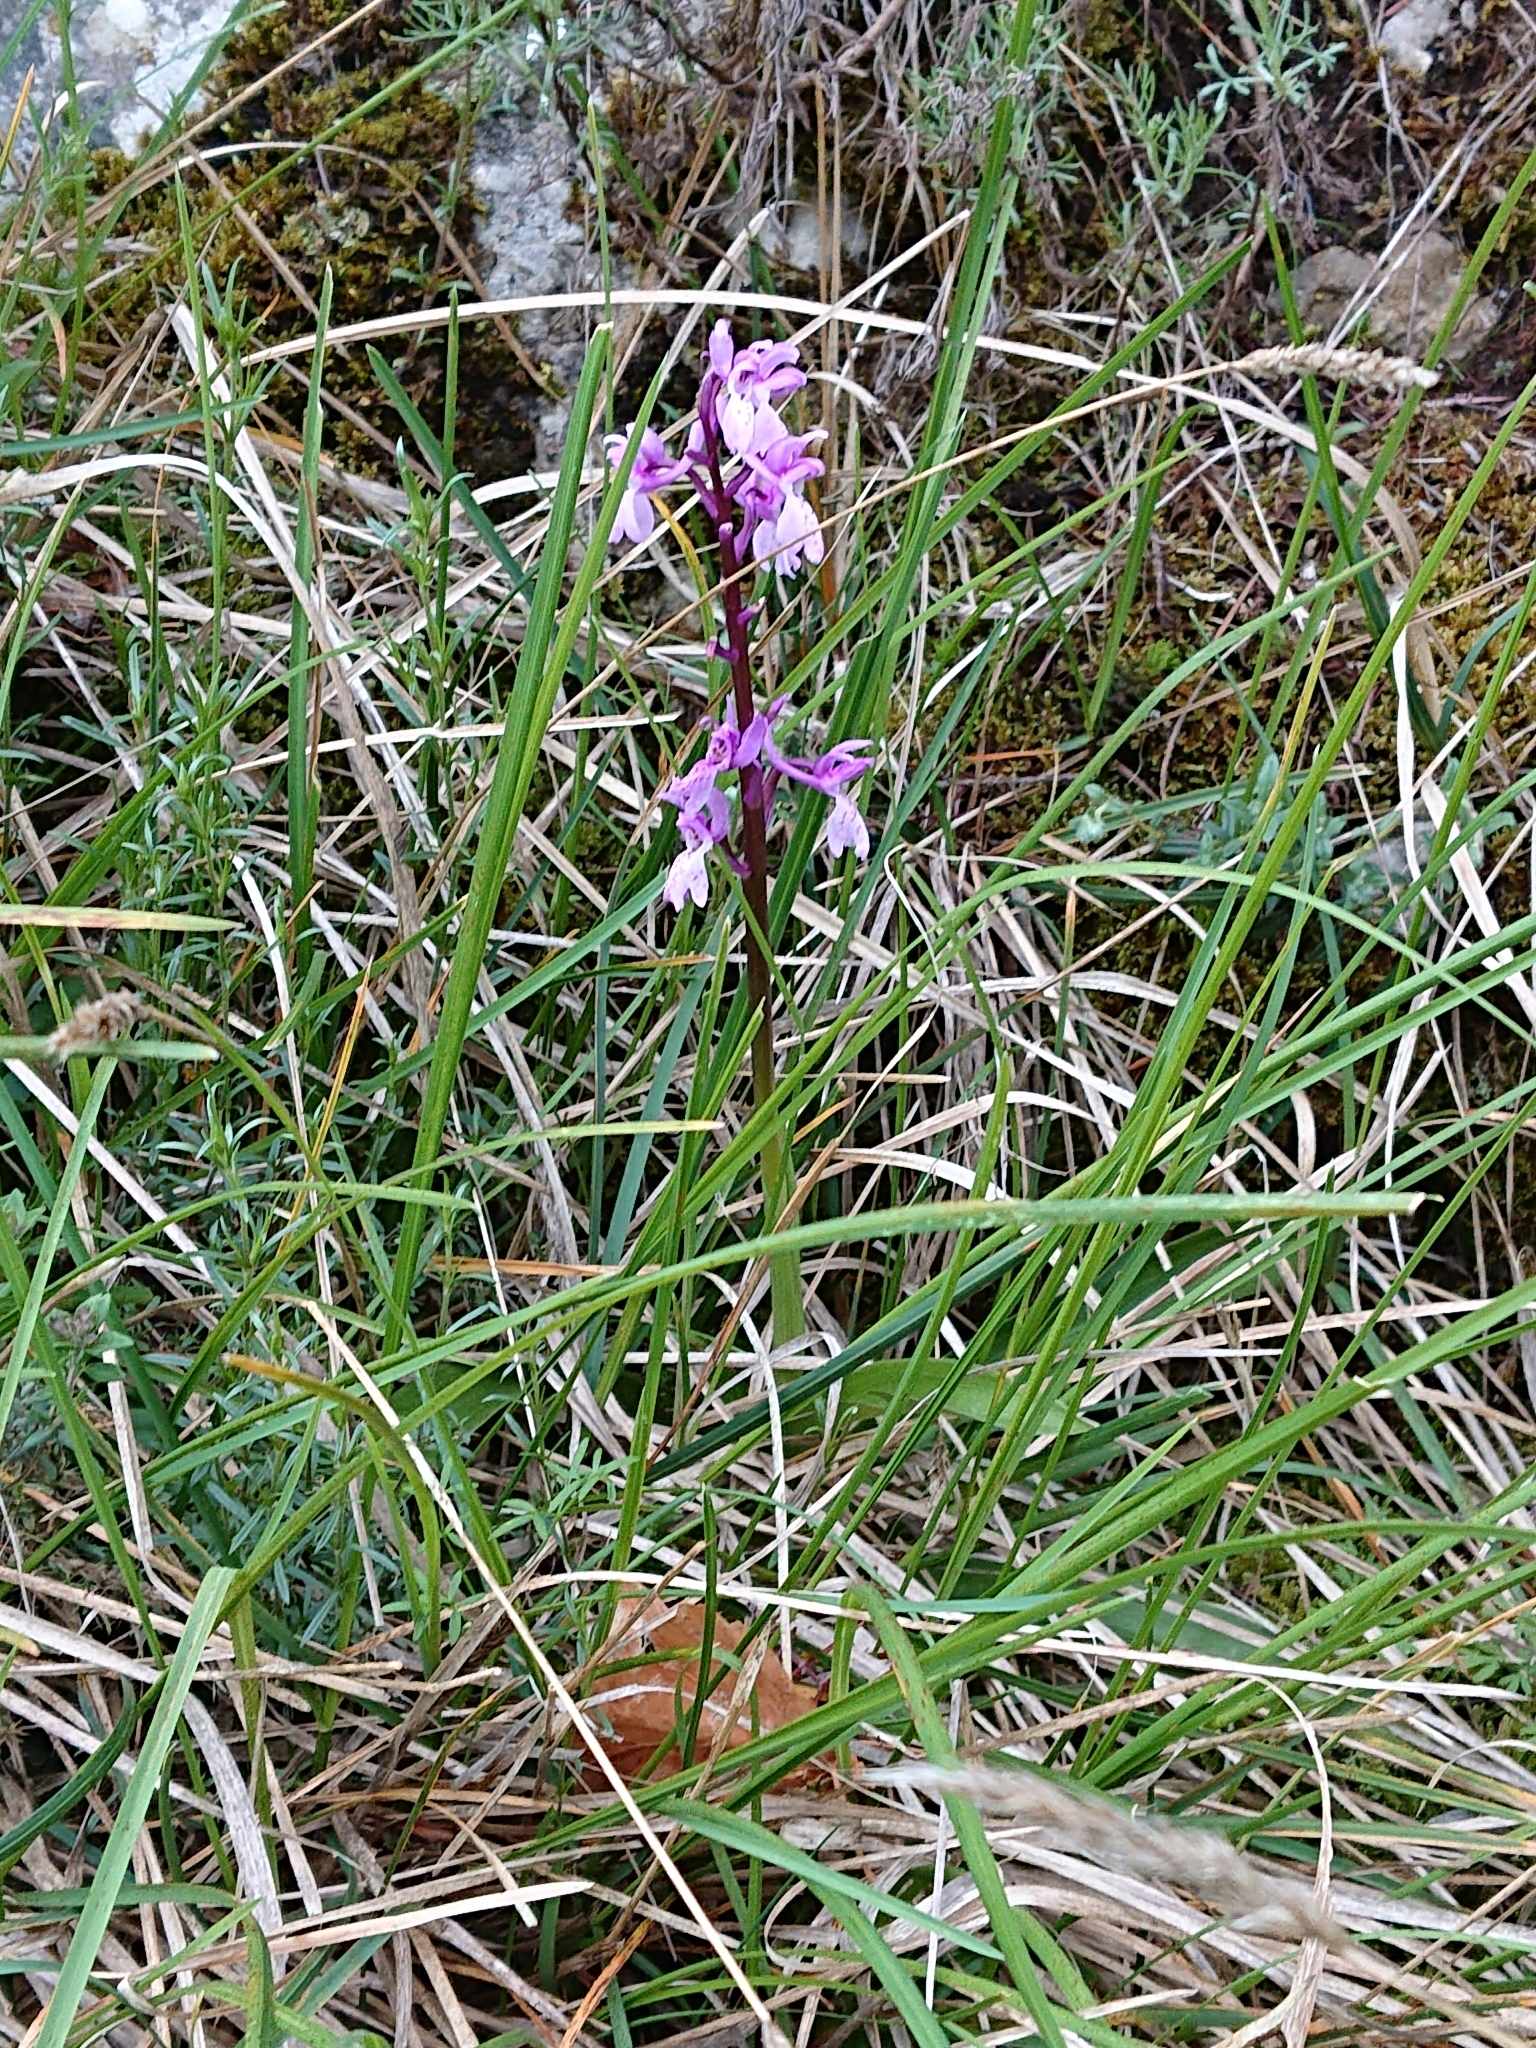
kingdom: Plantae
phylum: Tracheophyta
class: Liliopsida
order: Asparagales
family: Orchidaceae
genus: Orchis
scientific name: Orchis olbiensis
